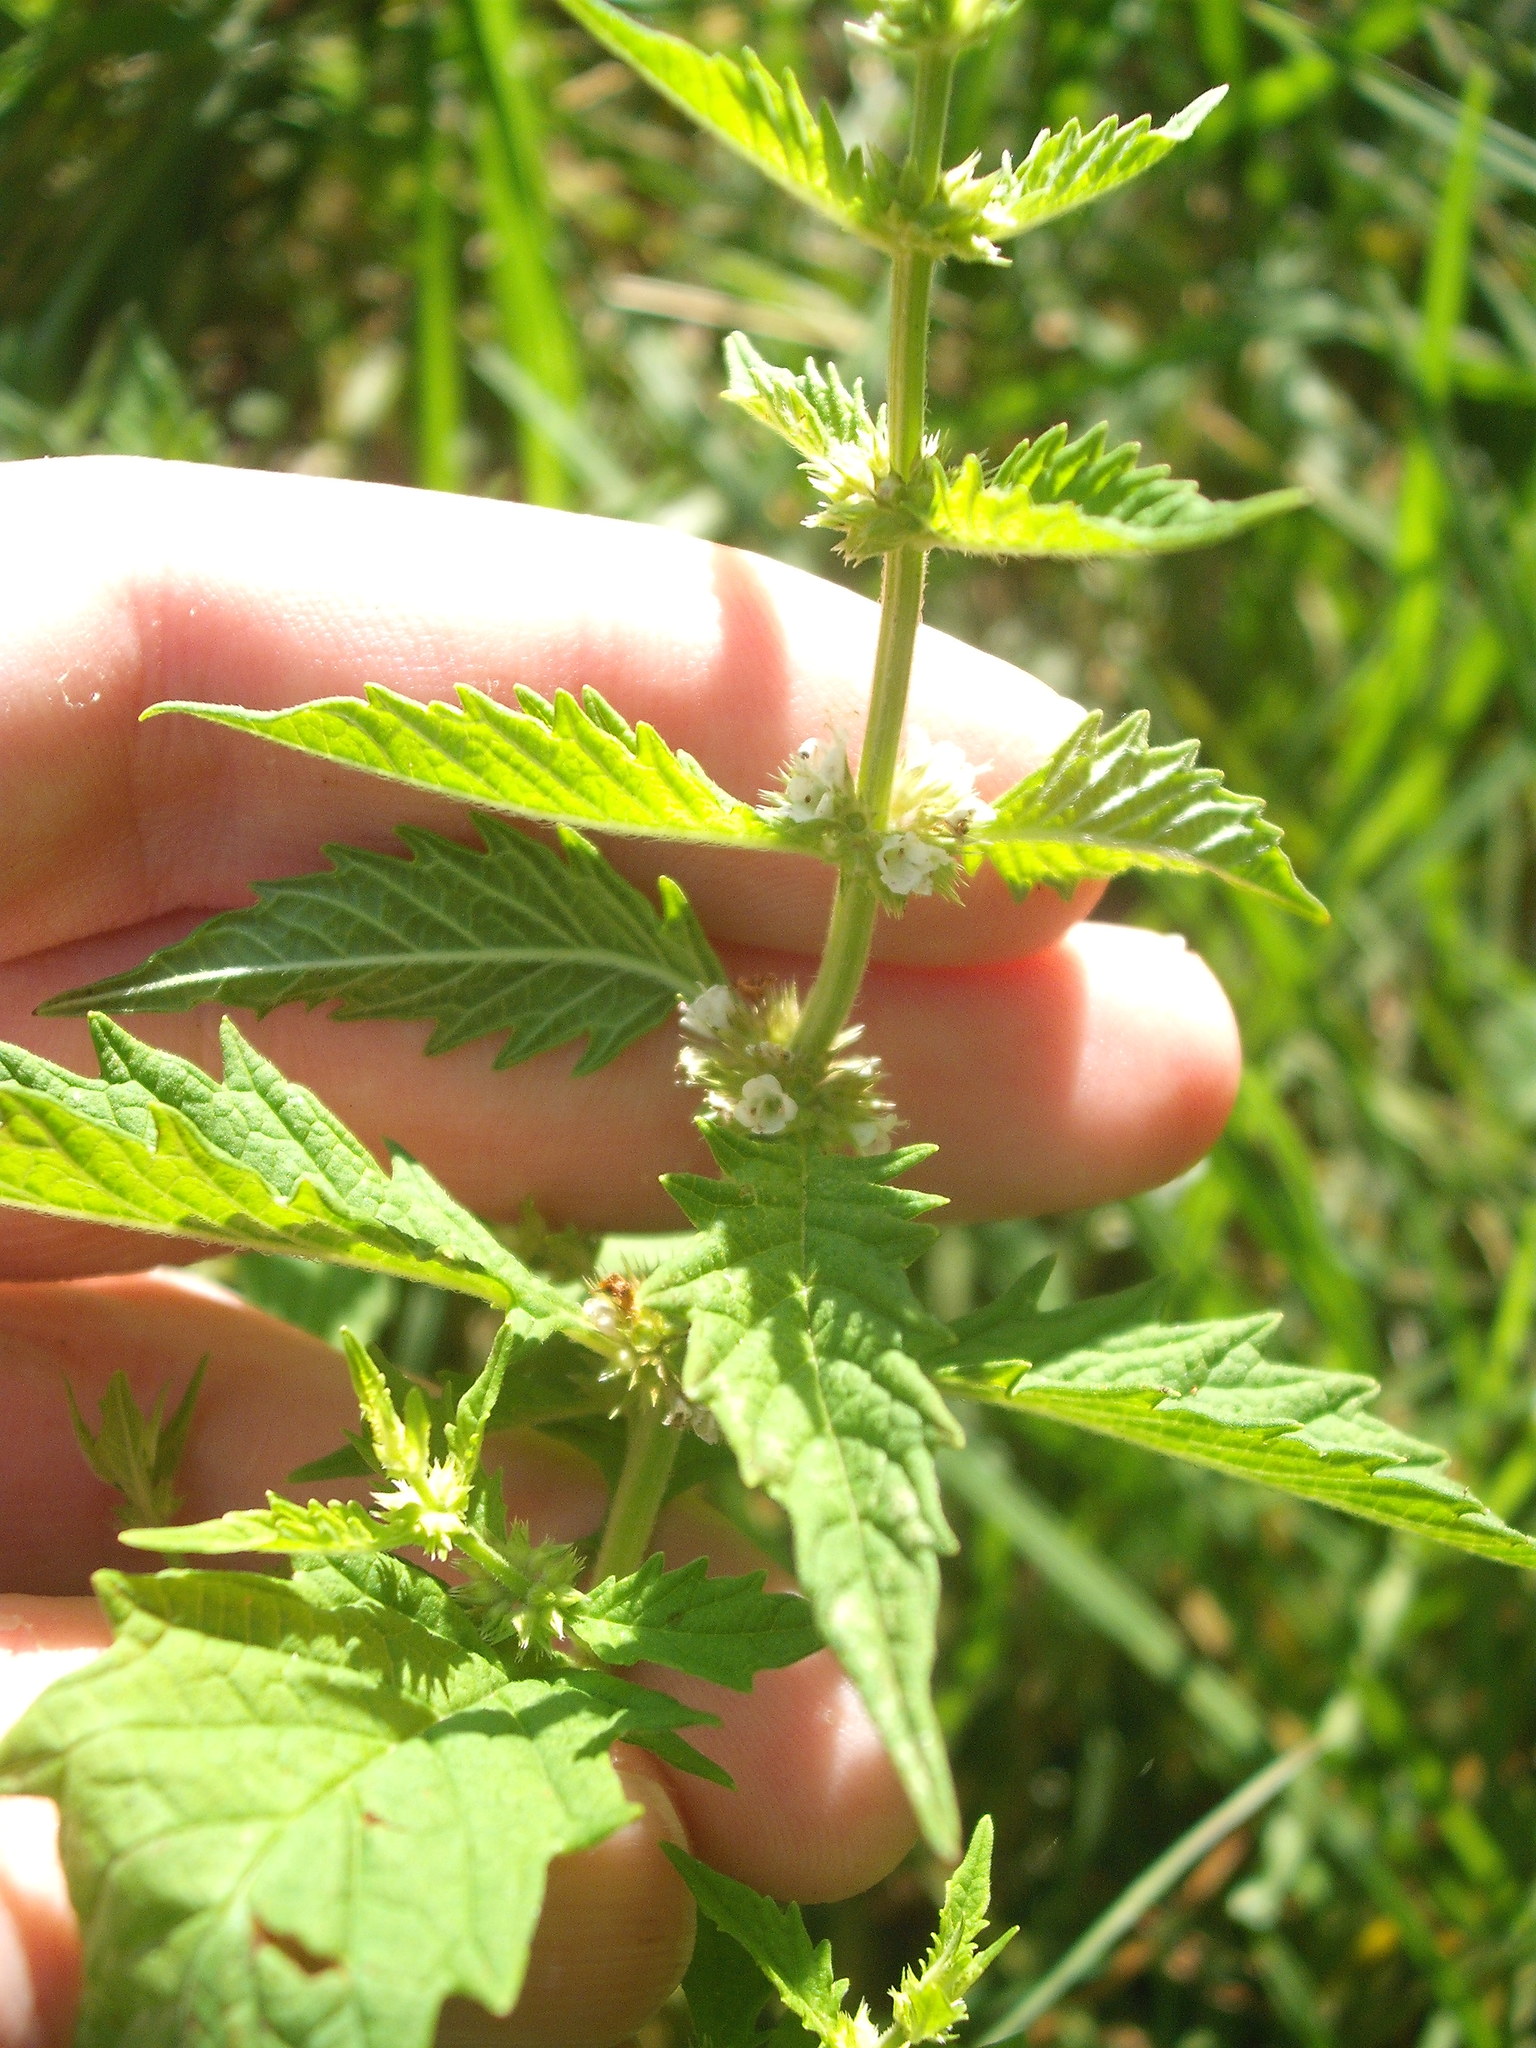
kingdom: Plantae
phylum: Tracheophyta
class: Magnoliopsida
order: Lamiales
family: Lamiaceae
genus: Lycopus
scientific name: Lycopus europaeus
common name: European bugleweed
